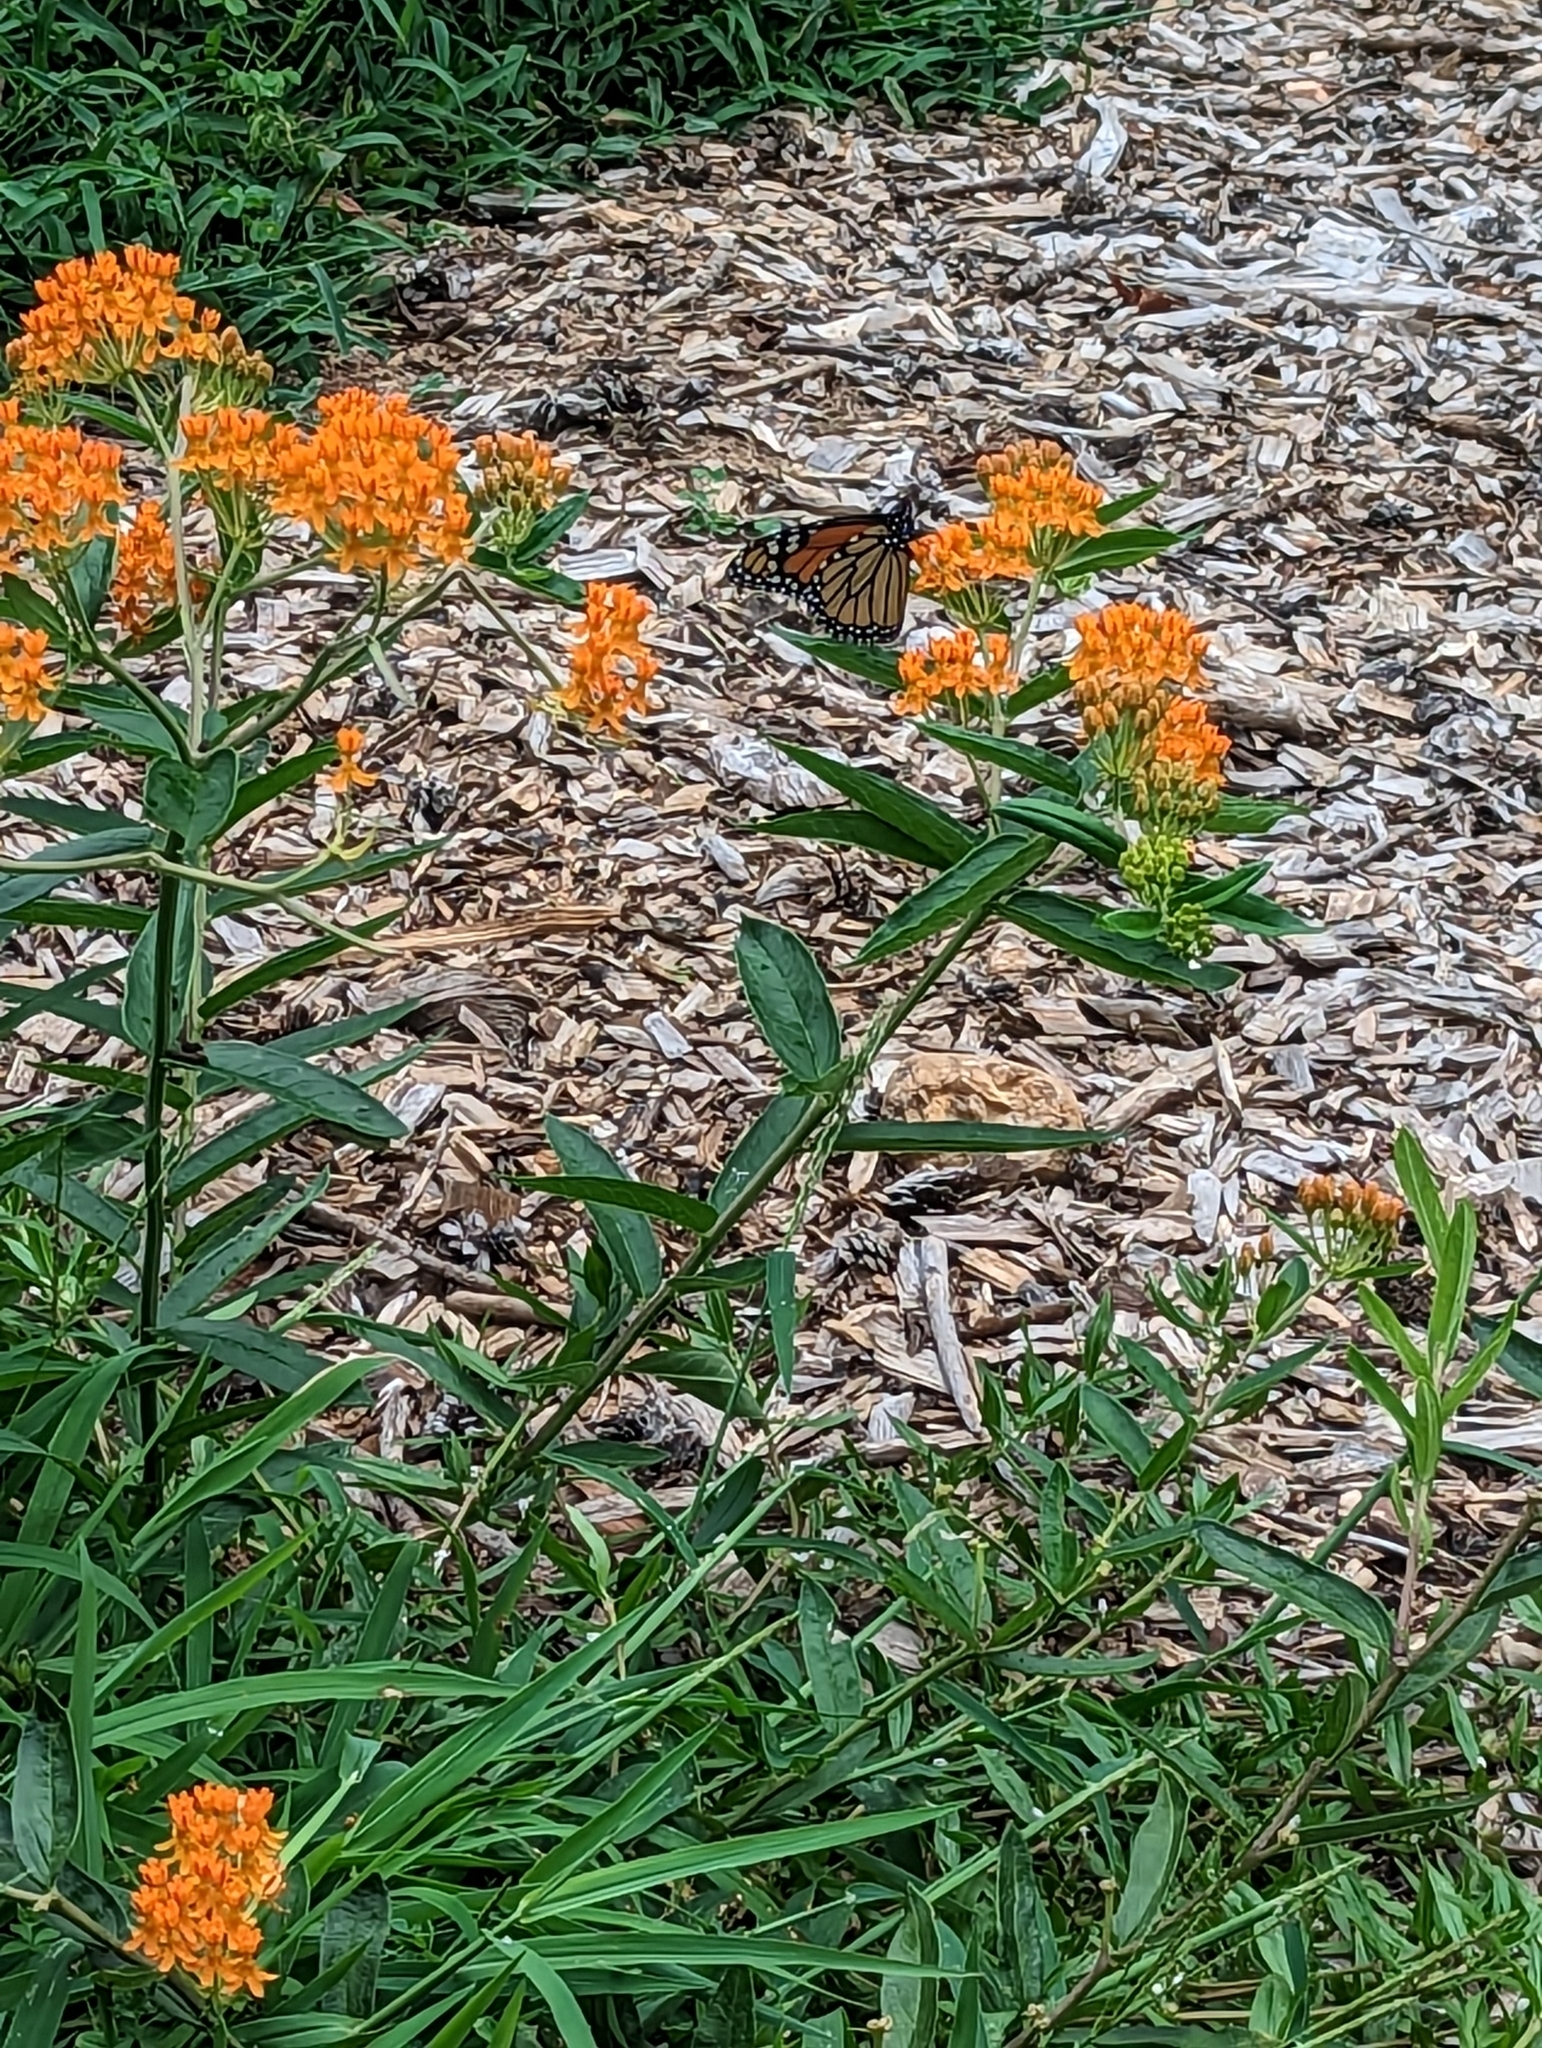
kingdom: Animalia
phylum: Arthropoda
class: Insecta
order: Lepidoptera
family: Nymphalidae
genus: Danaus
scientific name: Danaus plexippus
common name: Monarch
